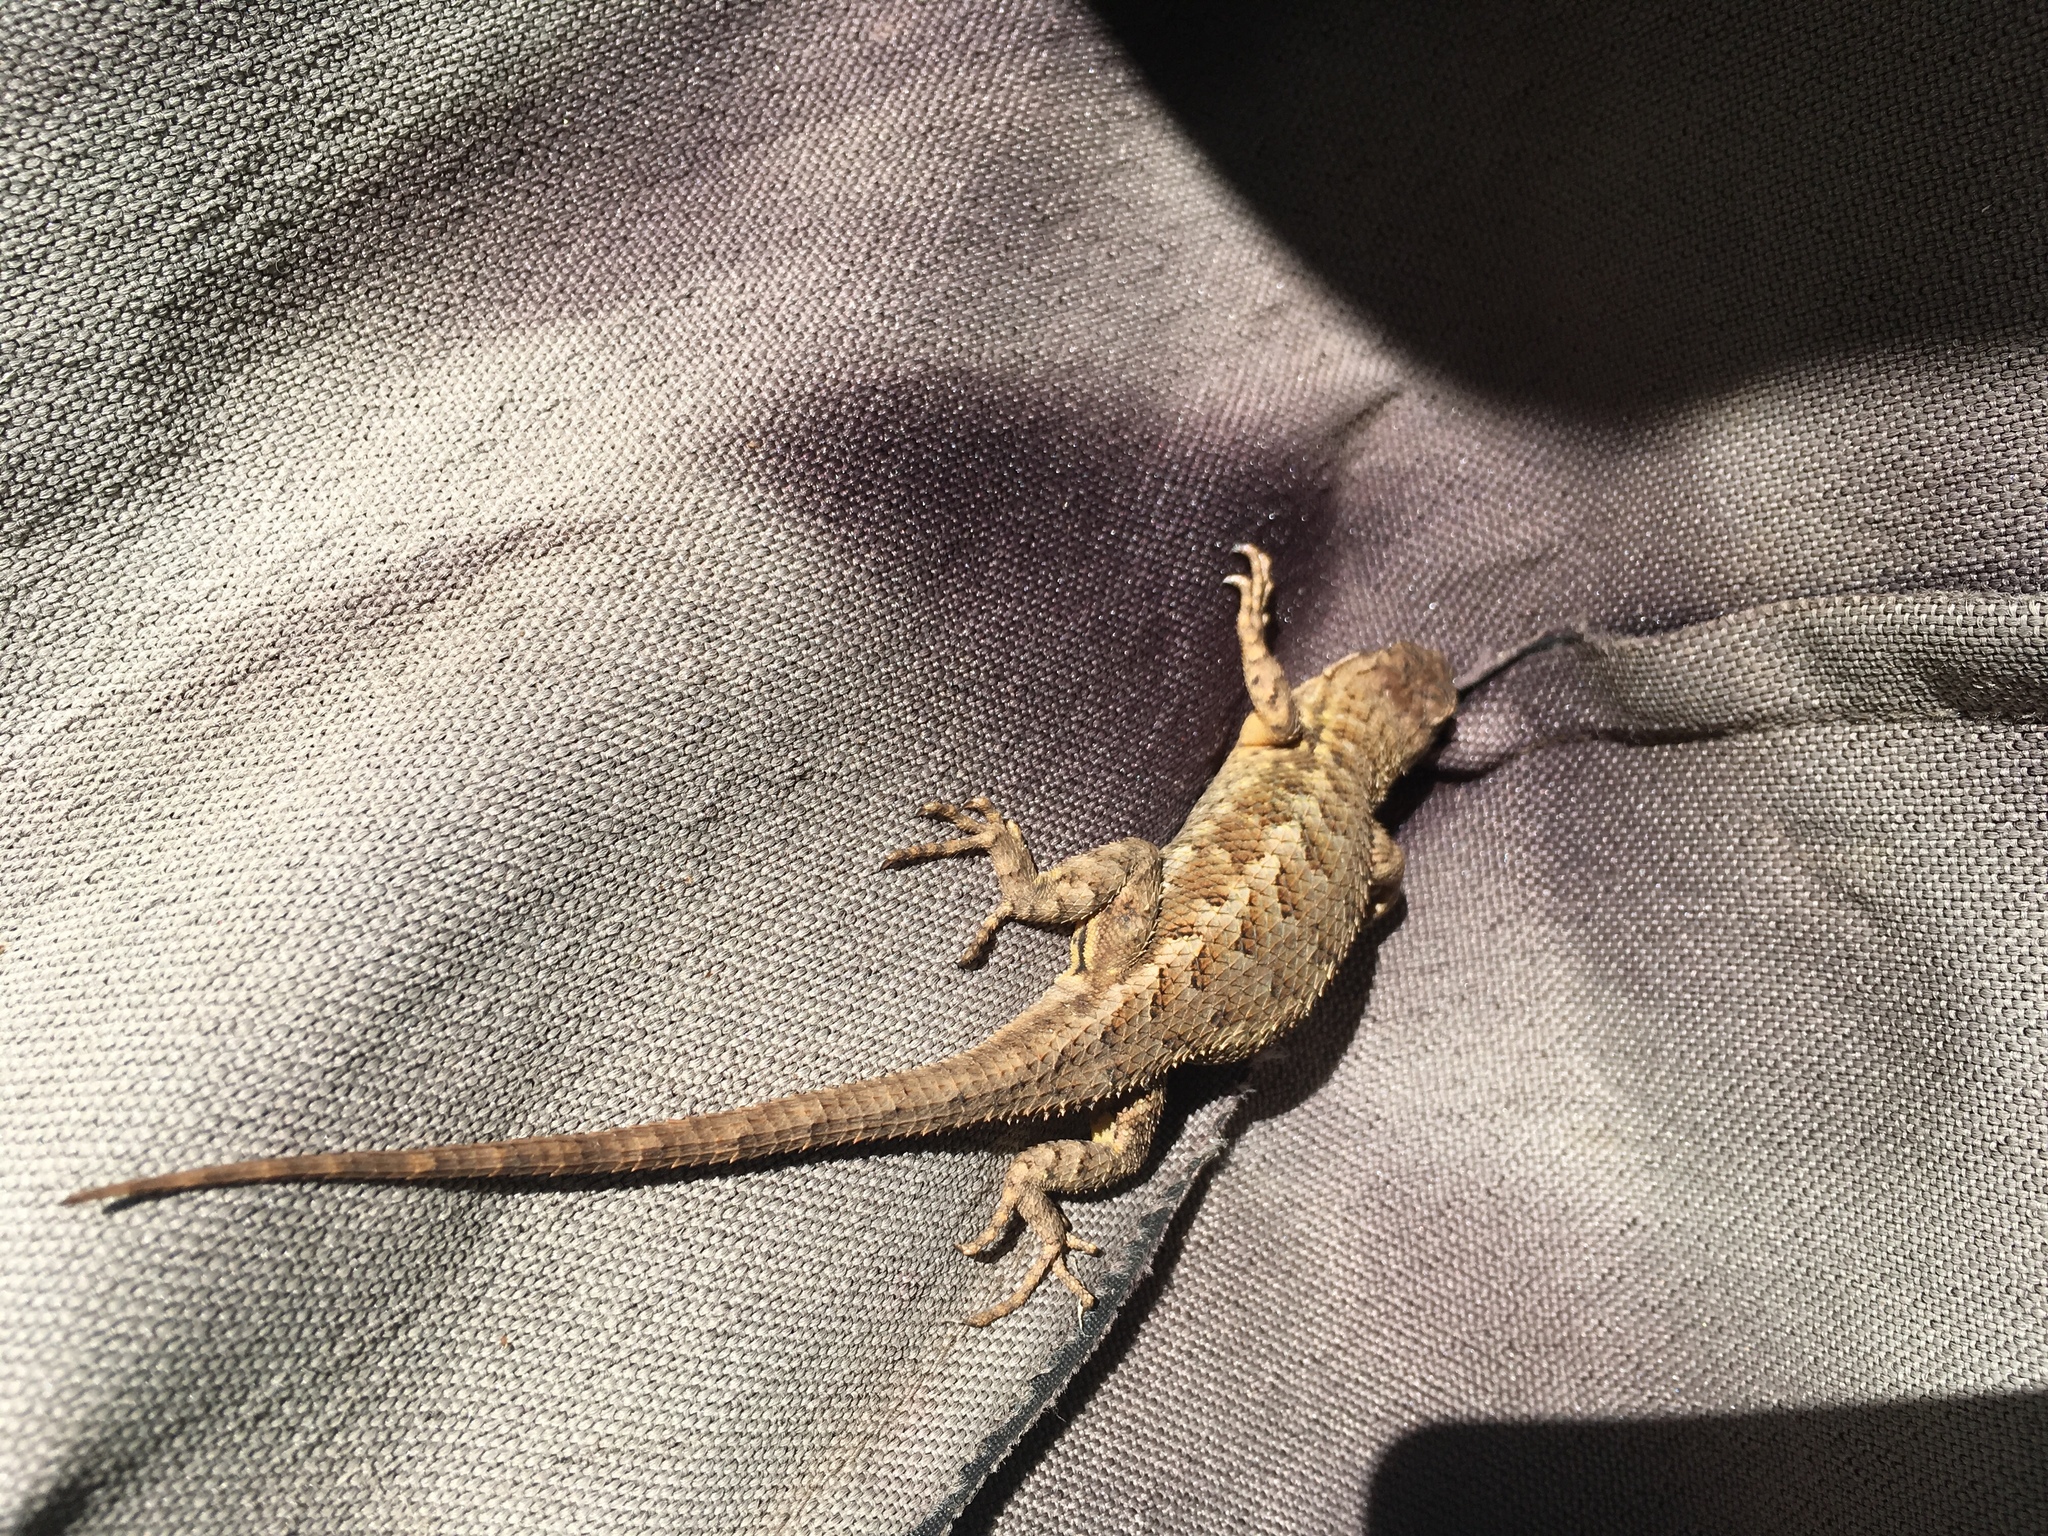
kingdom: Animalia
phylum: Chordata
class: Squamata
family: Phrynosomatidae
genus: Sceloporus
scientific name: Sceloporus occidentalis
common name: Western fence lizard
